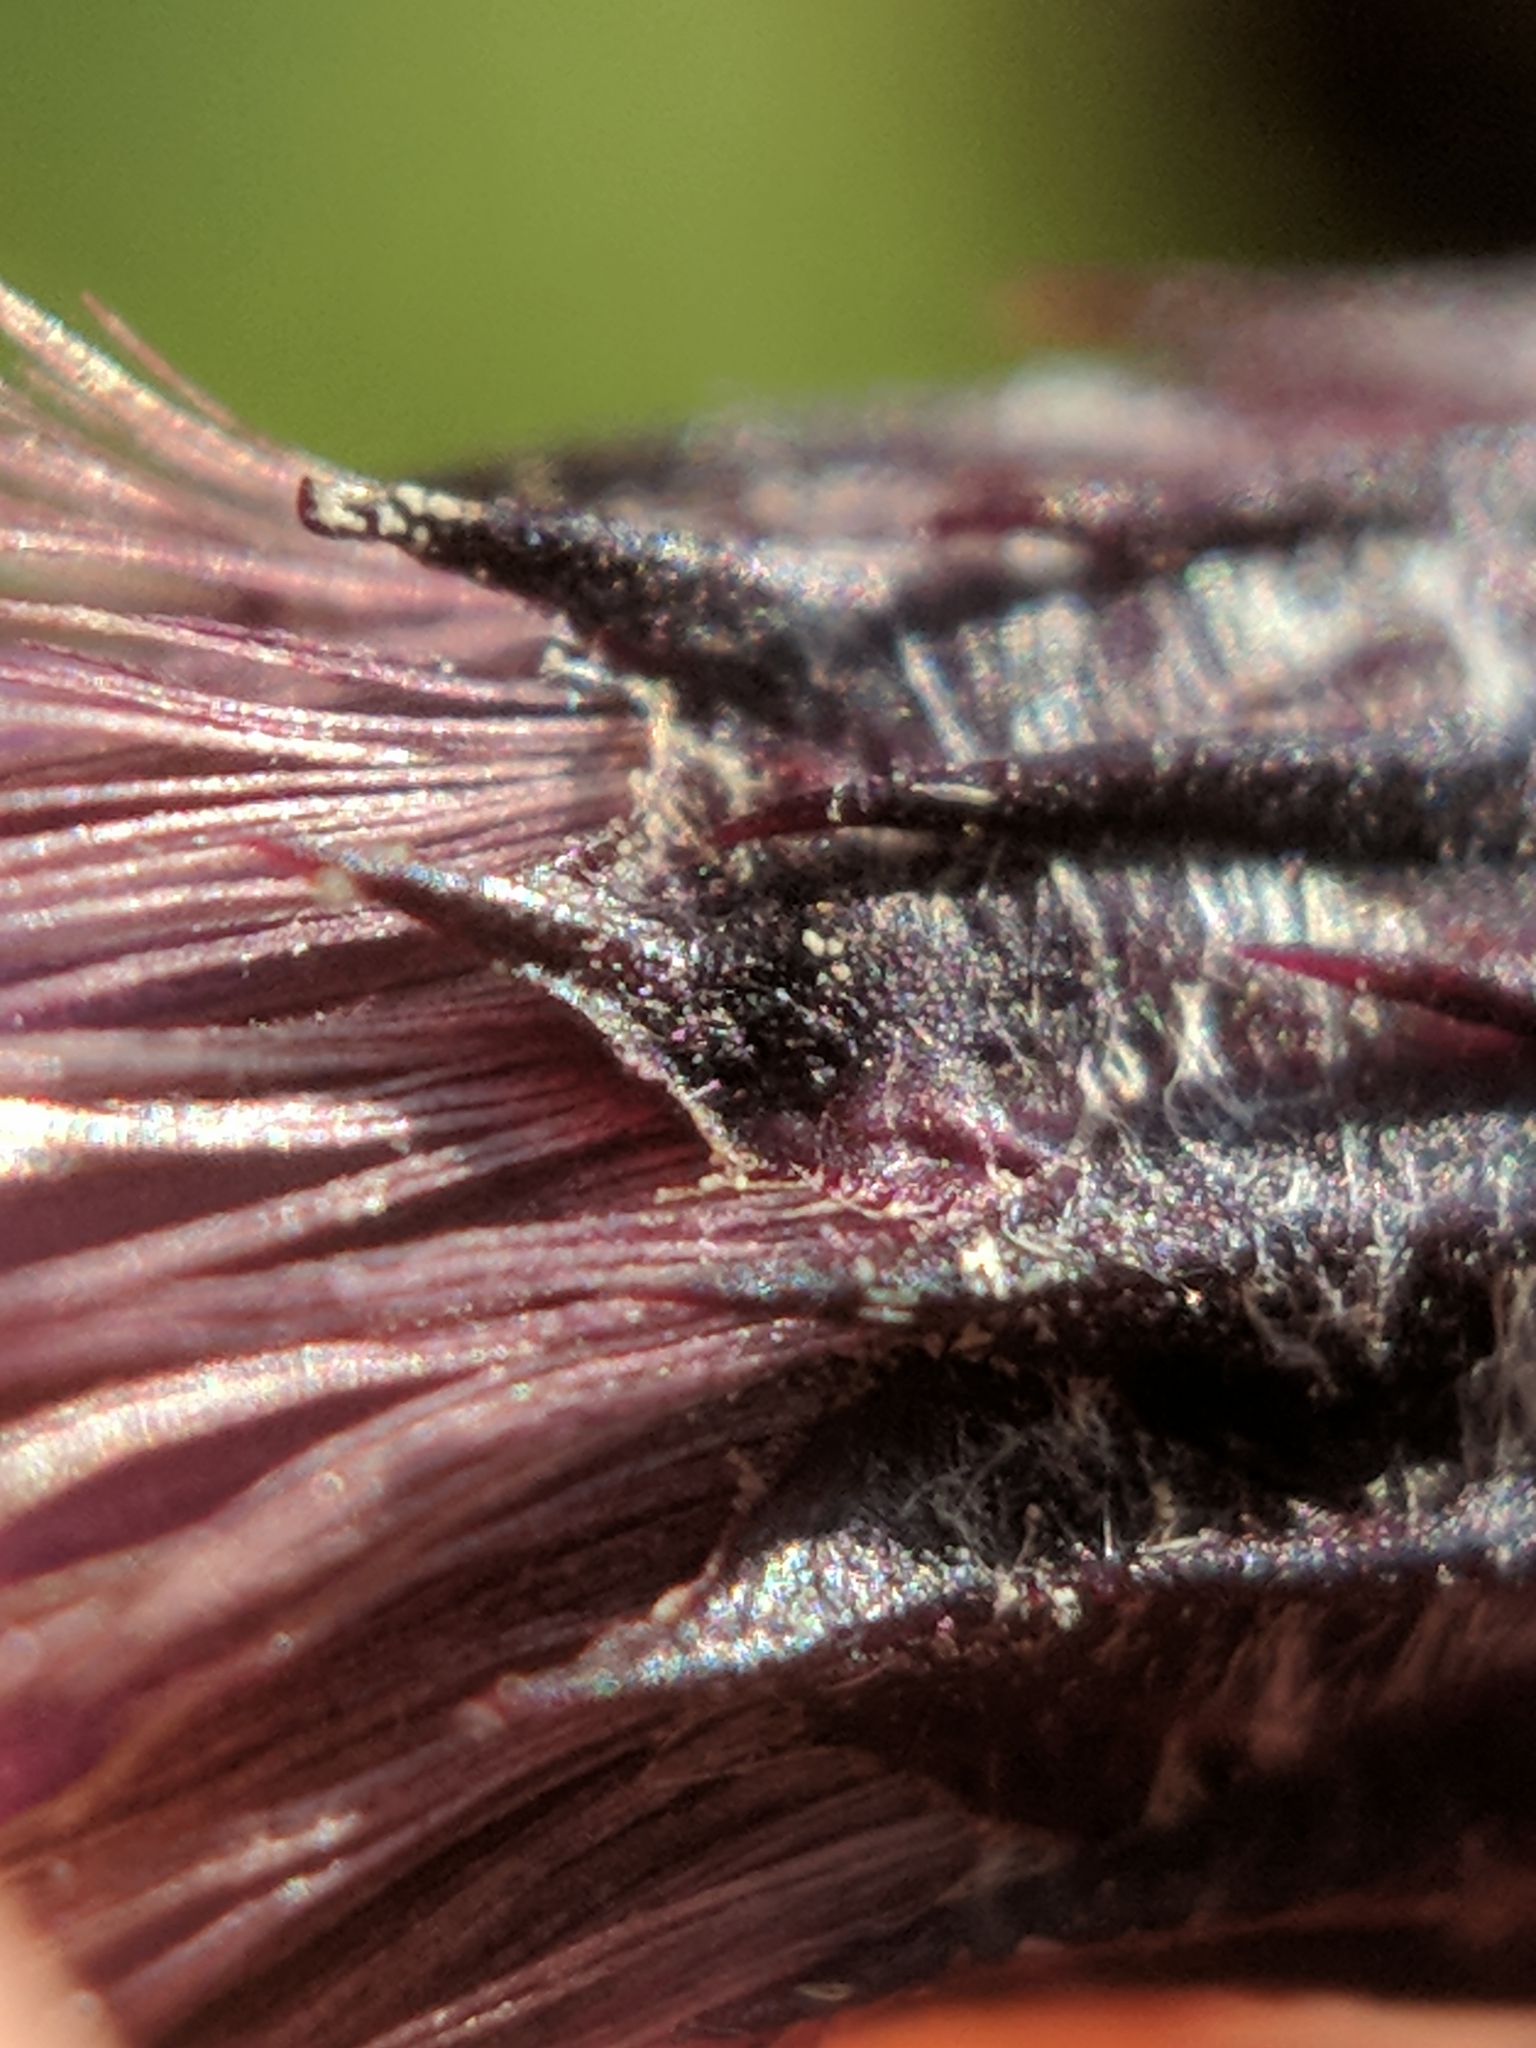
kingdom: Plantae
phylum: Tracheophyta
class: Magnoliopsida
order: Asterales
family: Asteraceae
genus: Vernonia
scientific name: Vernonia noveboracensis
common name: New york ironweed
